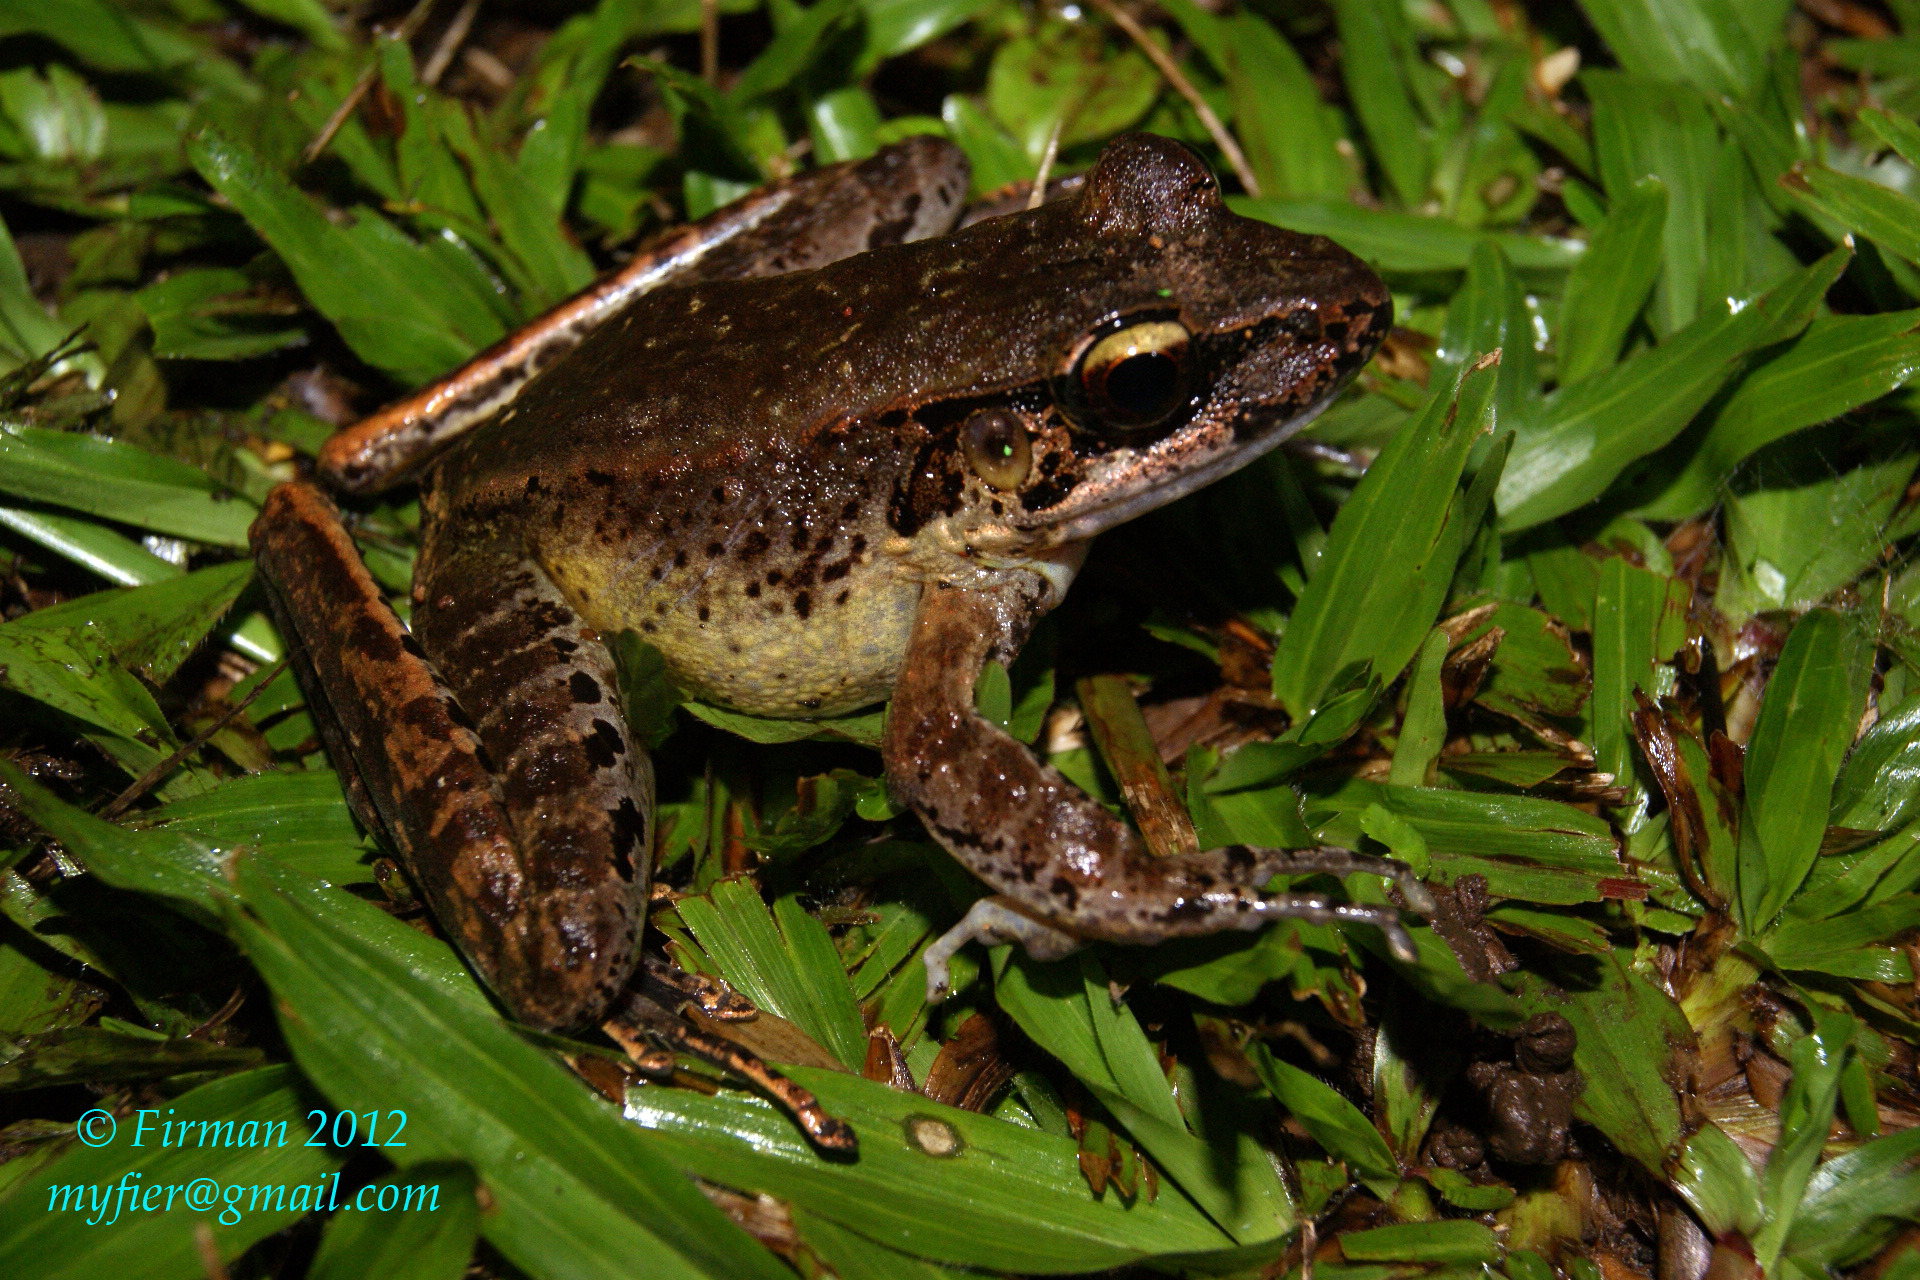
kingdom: Animalia
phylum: Chordata
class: Amphibia
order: Anura
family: Ranidae
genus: Huia
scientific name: Huia masonii
